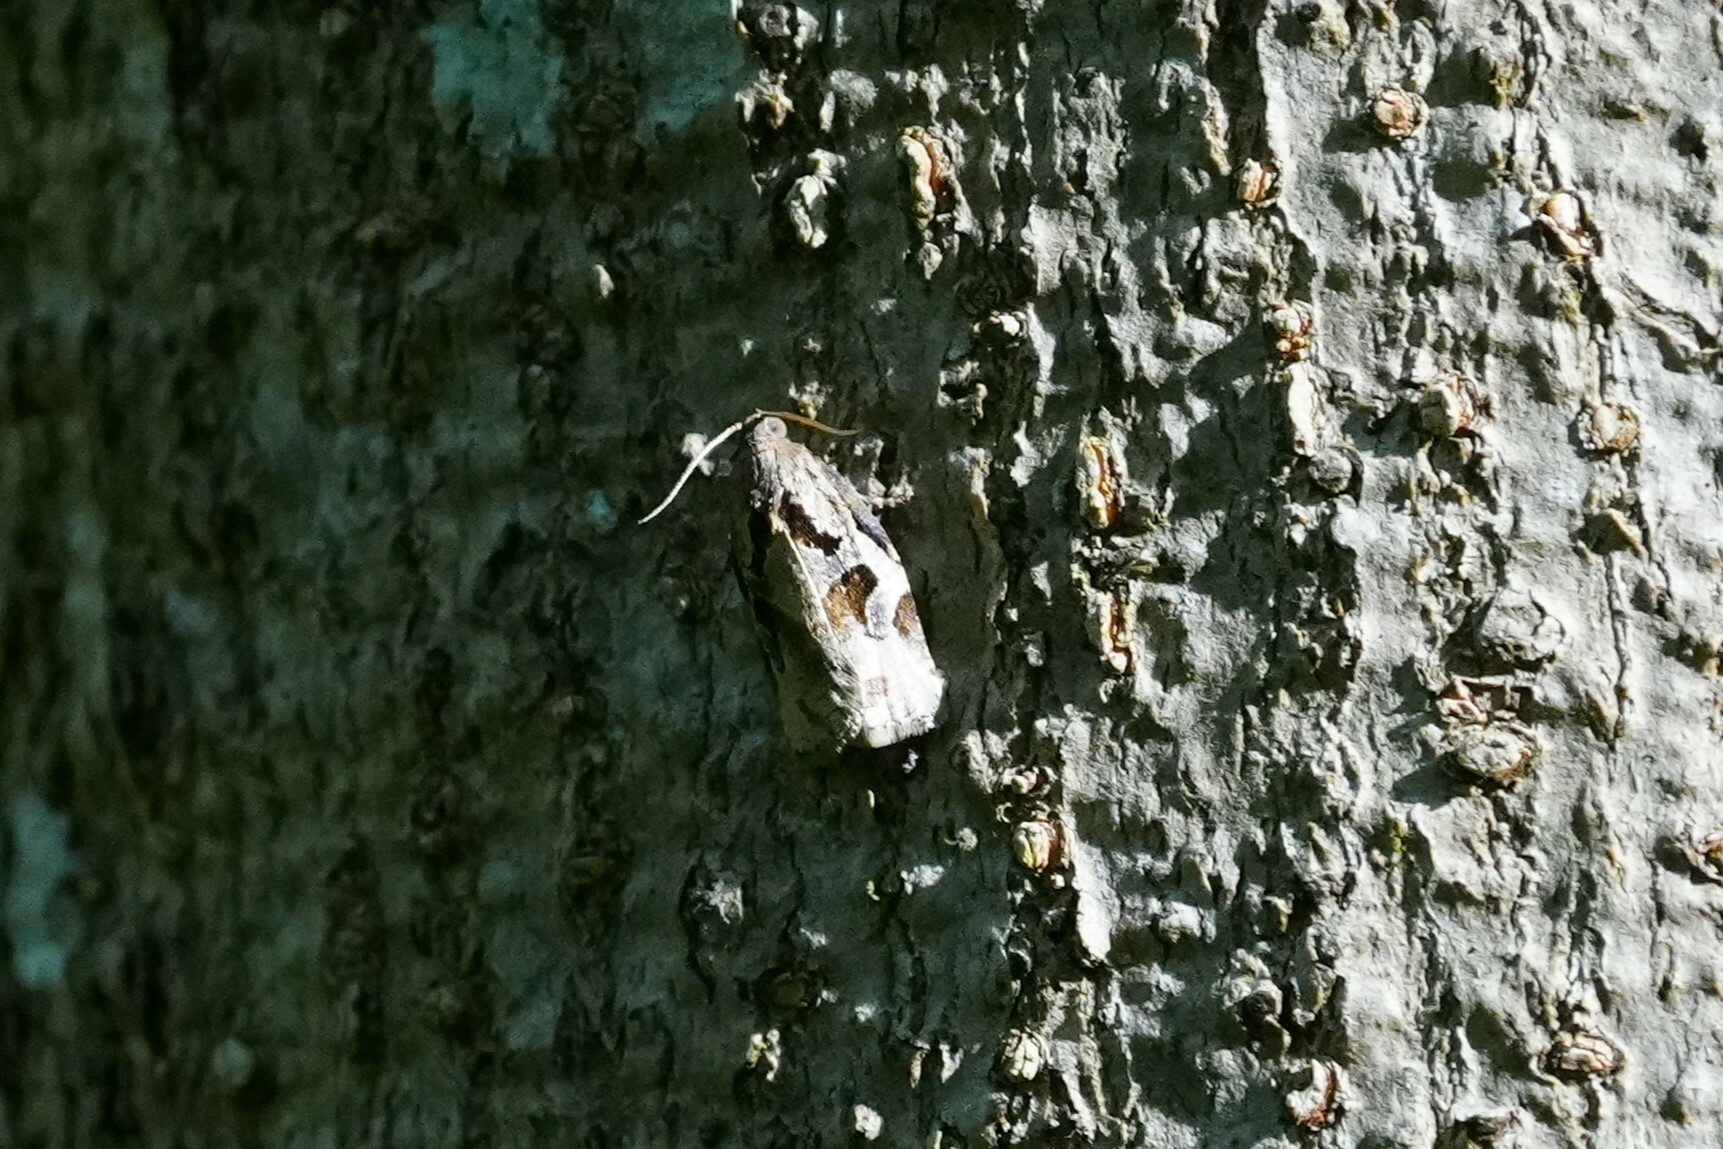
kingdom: Animalia
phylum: Arthropoda
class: Insecta
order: Lepidoptera
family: Tortricidae
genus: Archips
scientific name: Archips grisea
